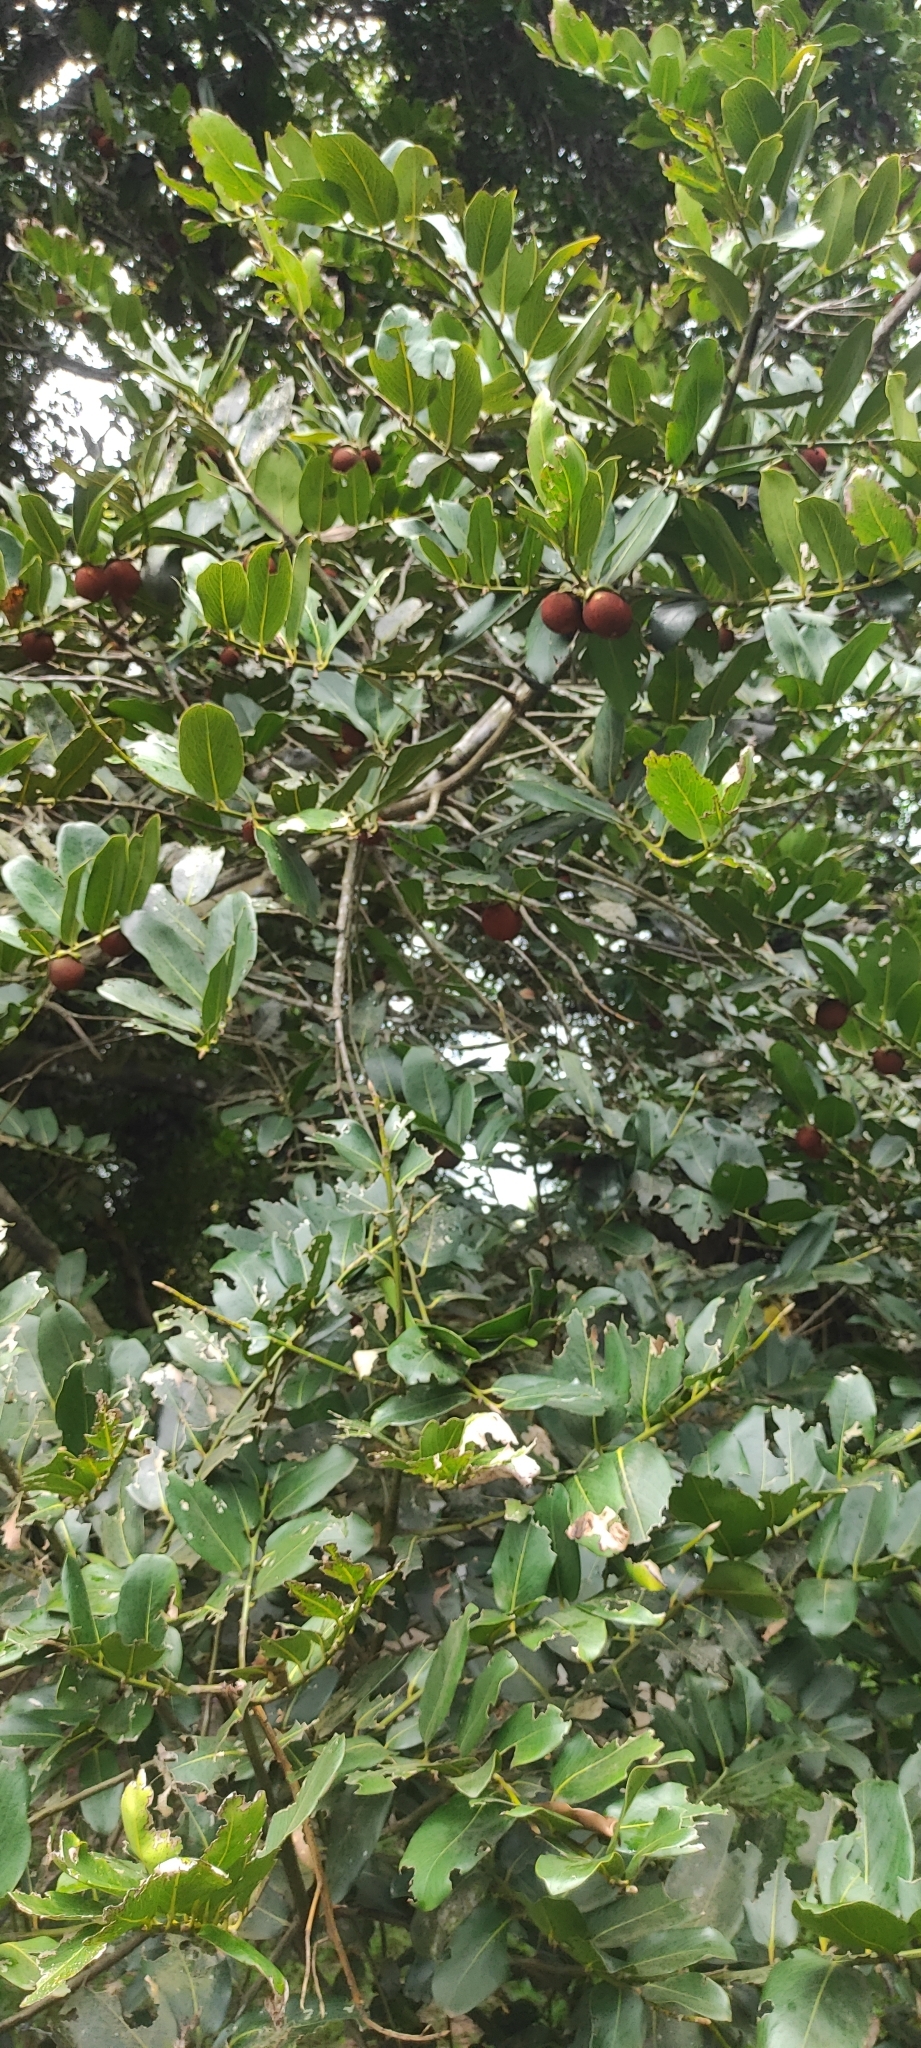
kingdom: Plantae
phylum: Tracheophyta
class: Magnoliopsida
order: Ericales
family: Ebenaceae
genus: Diospyros
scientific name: Diospyros malabarica
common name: Mountain ebony
